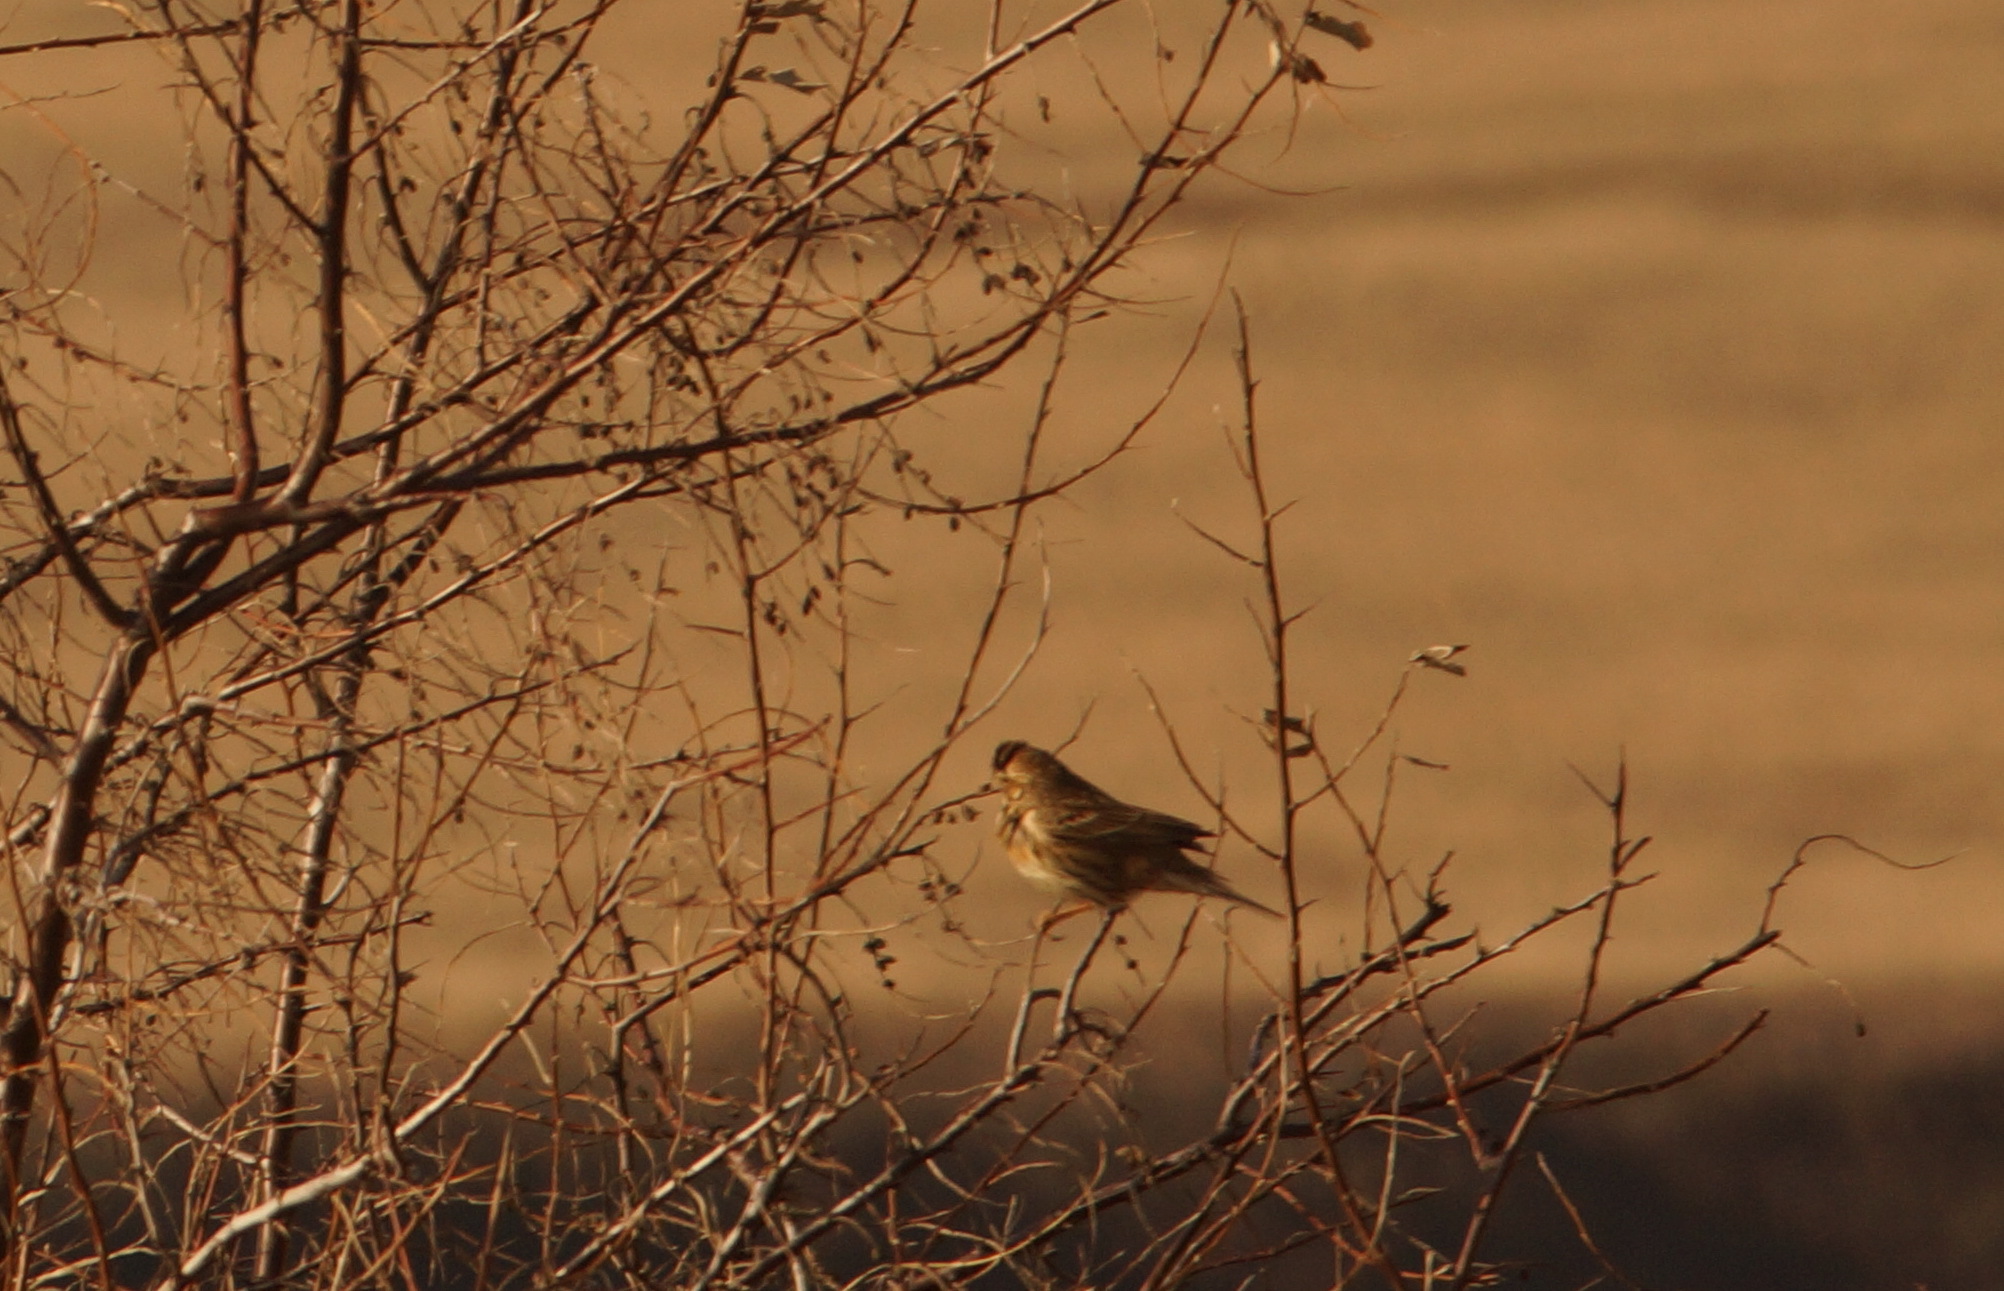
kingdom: Animalia
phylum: Chordata
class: Aves
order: Passeriformes
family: Emberizidae
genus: Emberiza
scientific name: Emberiza calandra
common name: Corn bunting
